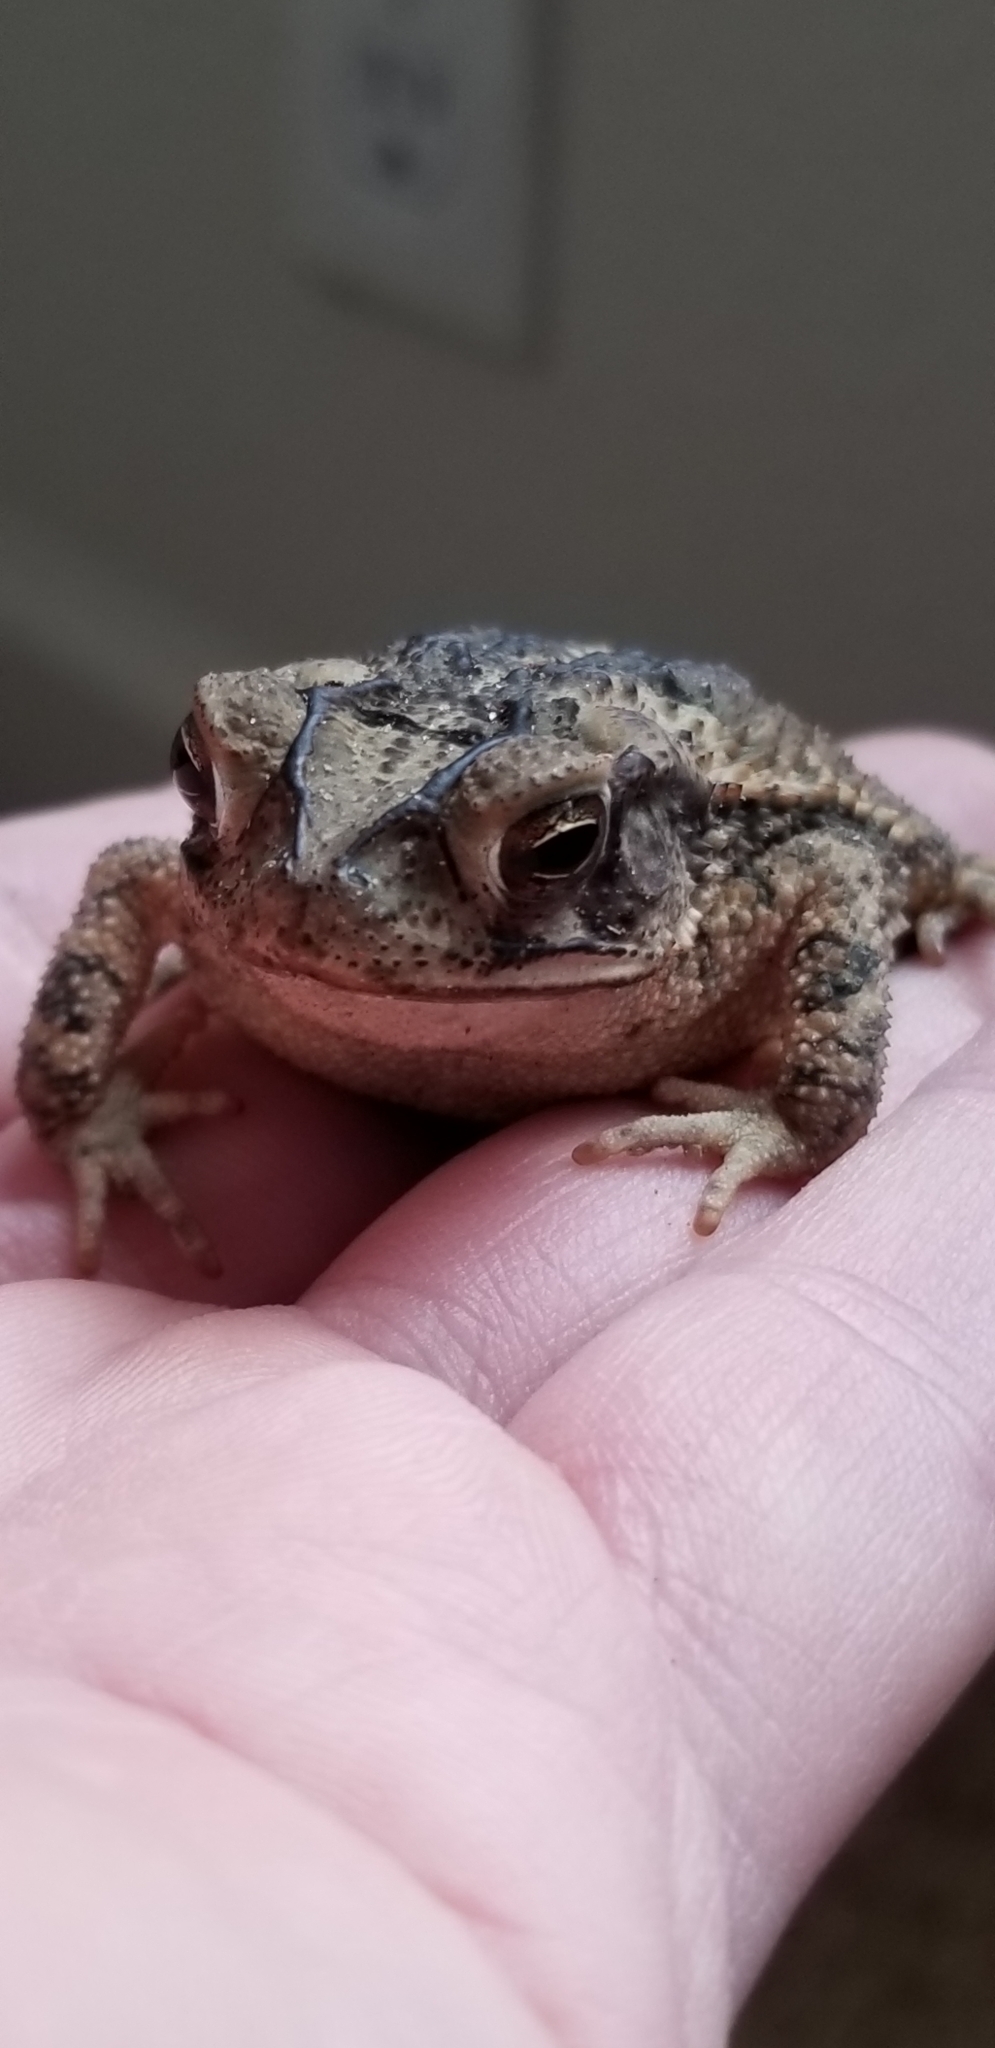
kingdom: Animalia
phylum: Chordata
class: Amphibia
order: Anura
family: Bufonidae
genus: Incilius
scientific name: Incilius nebulifer
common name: Gulf coast toad
